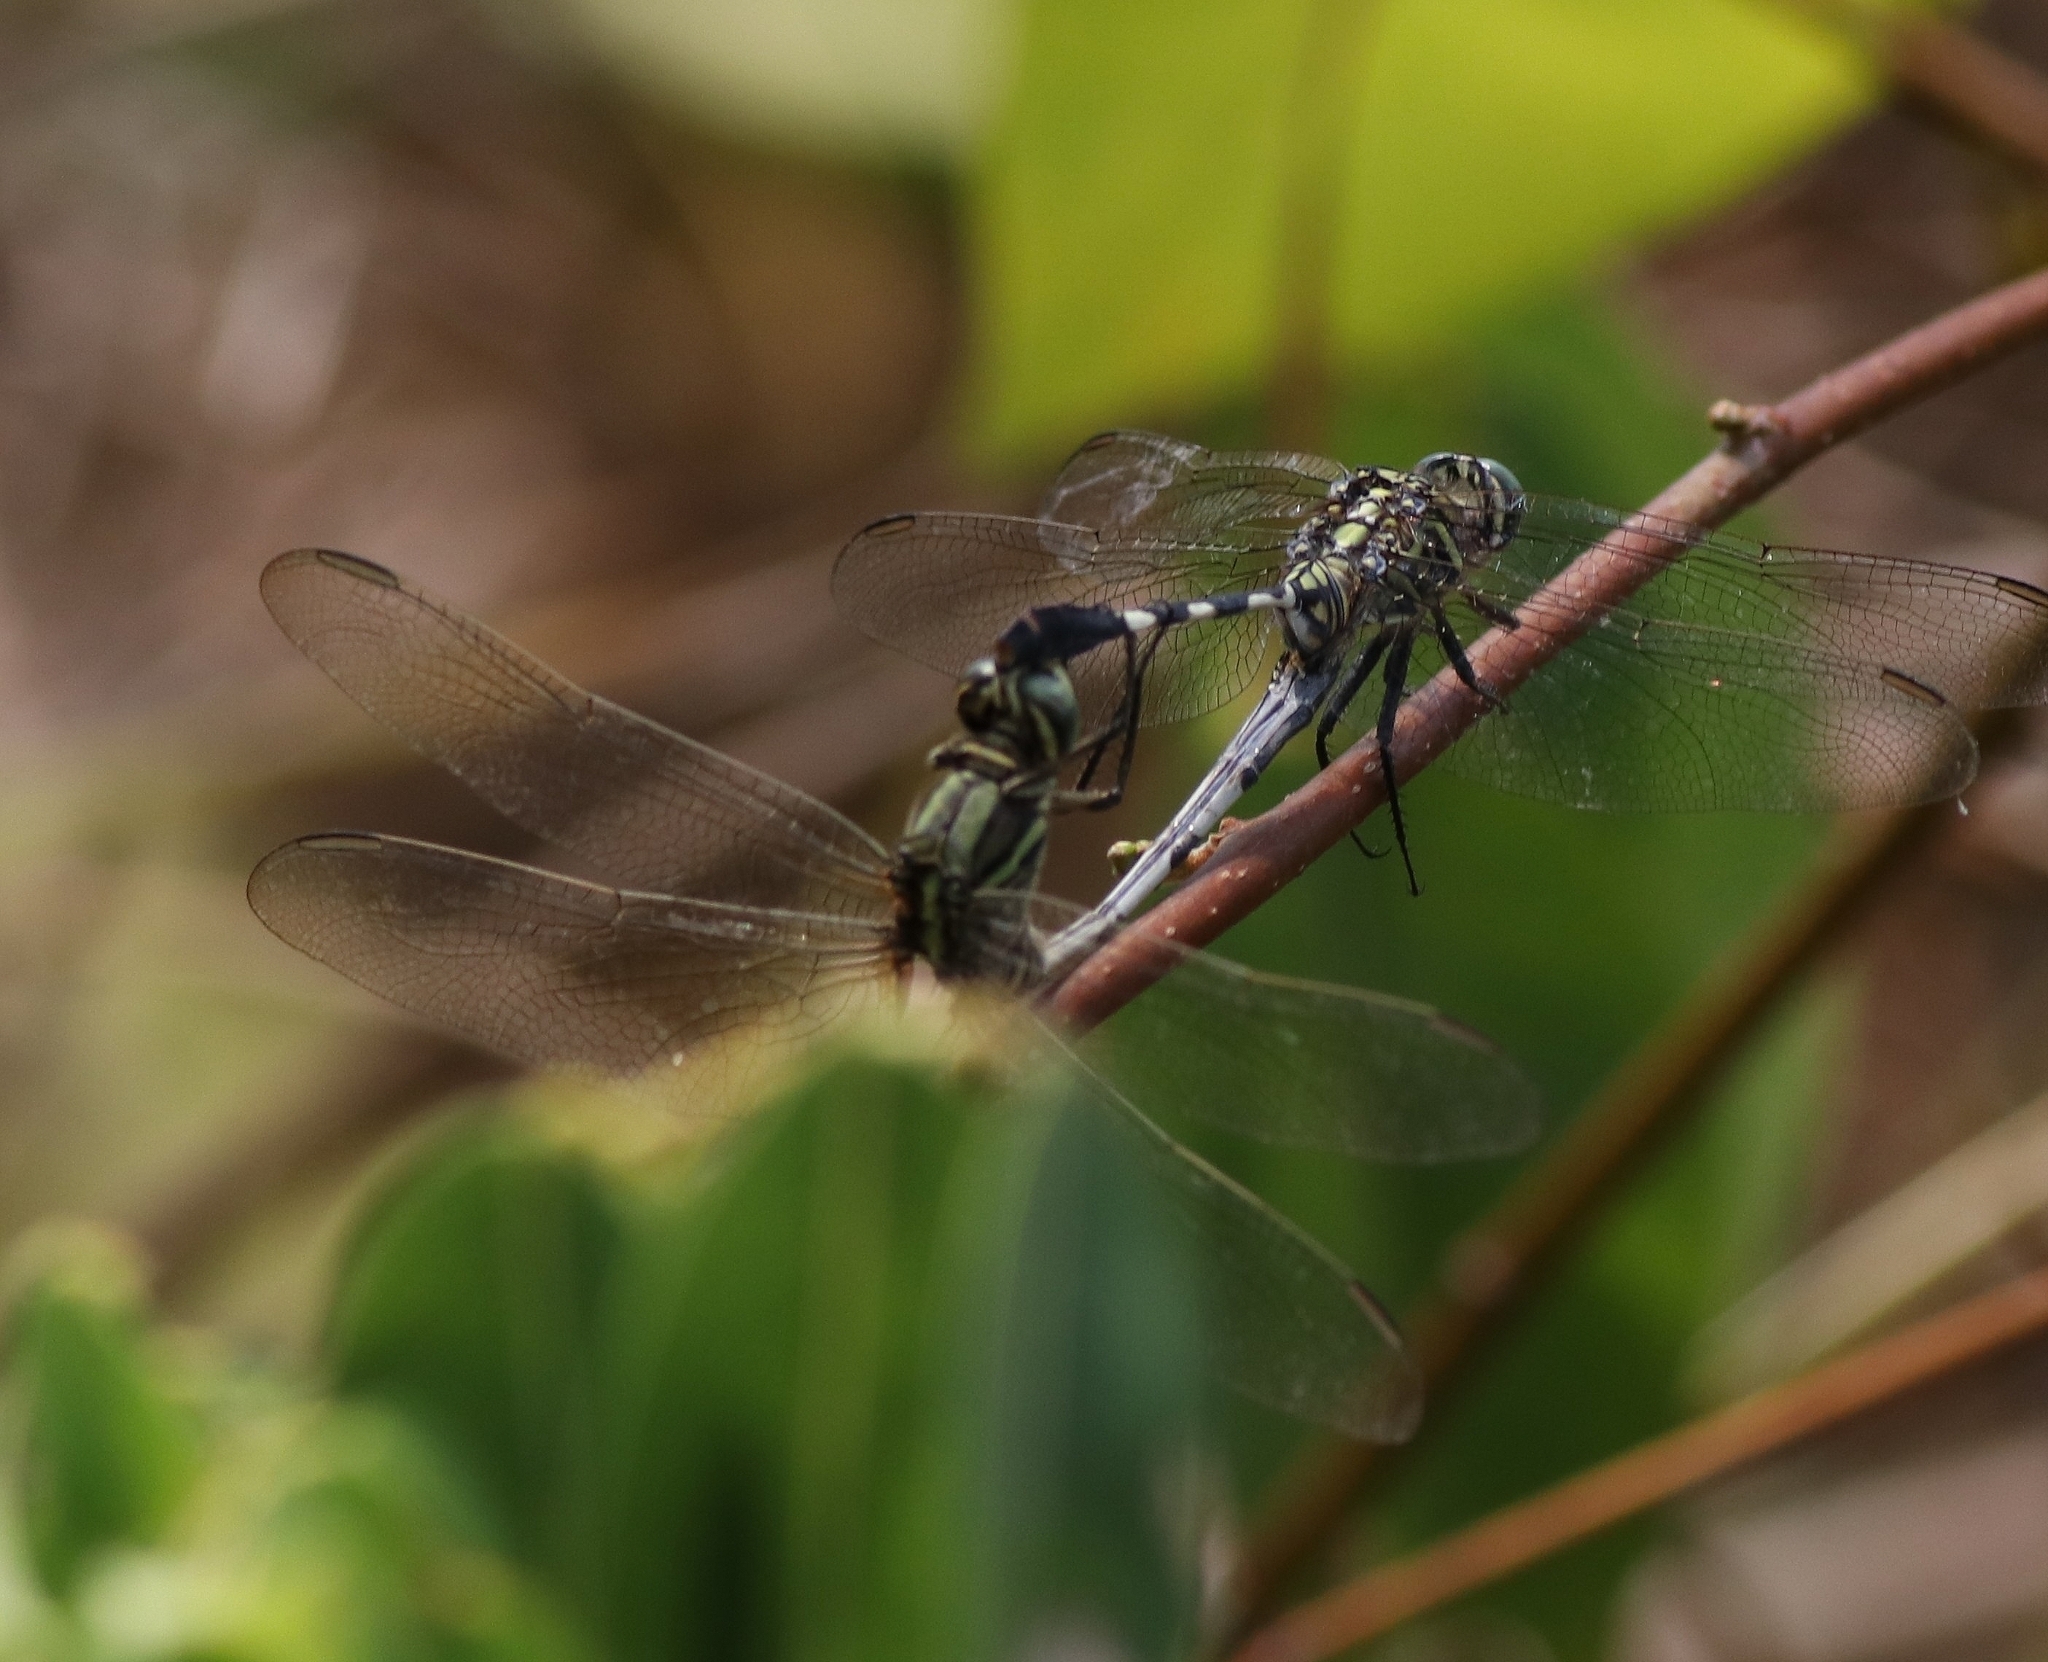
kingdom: Animalia
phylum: Arthropoda
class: Insecta
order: Odonata
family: Libellulidae
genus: Orthetrum
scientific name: Orthetrum sabina
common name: Slender skimmer
